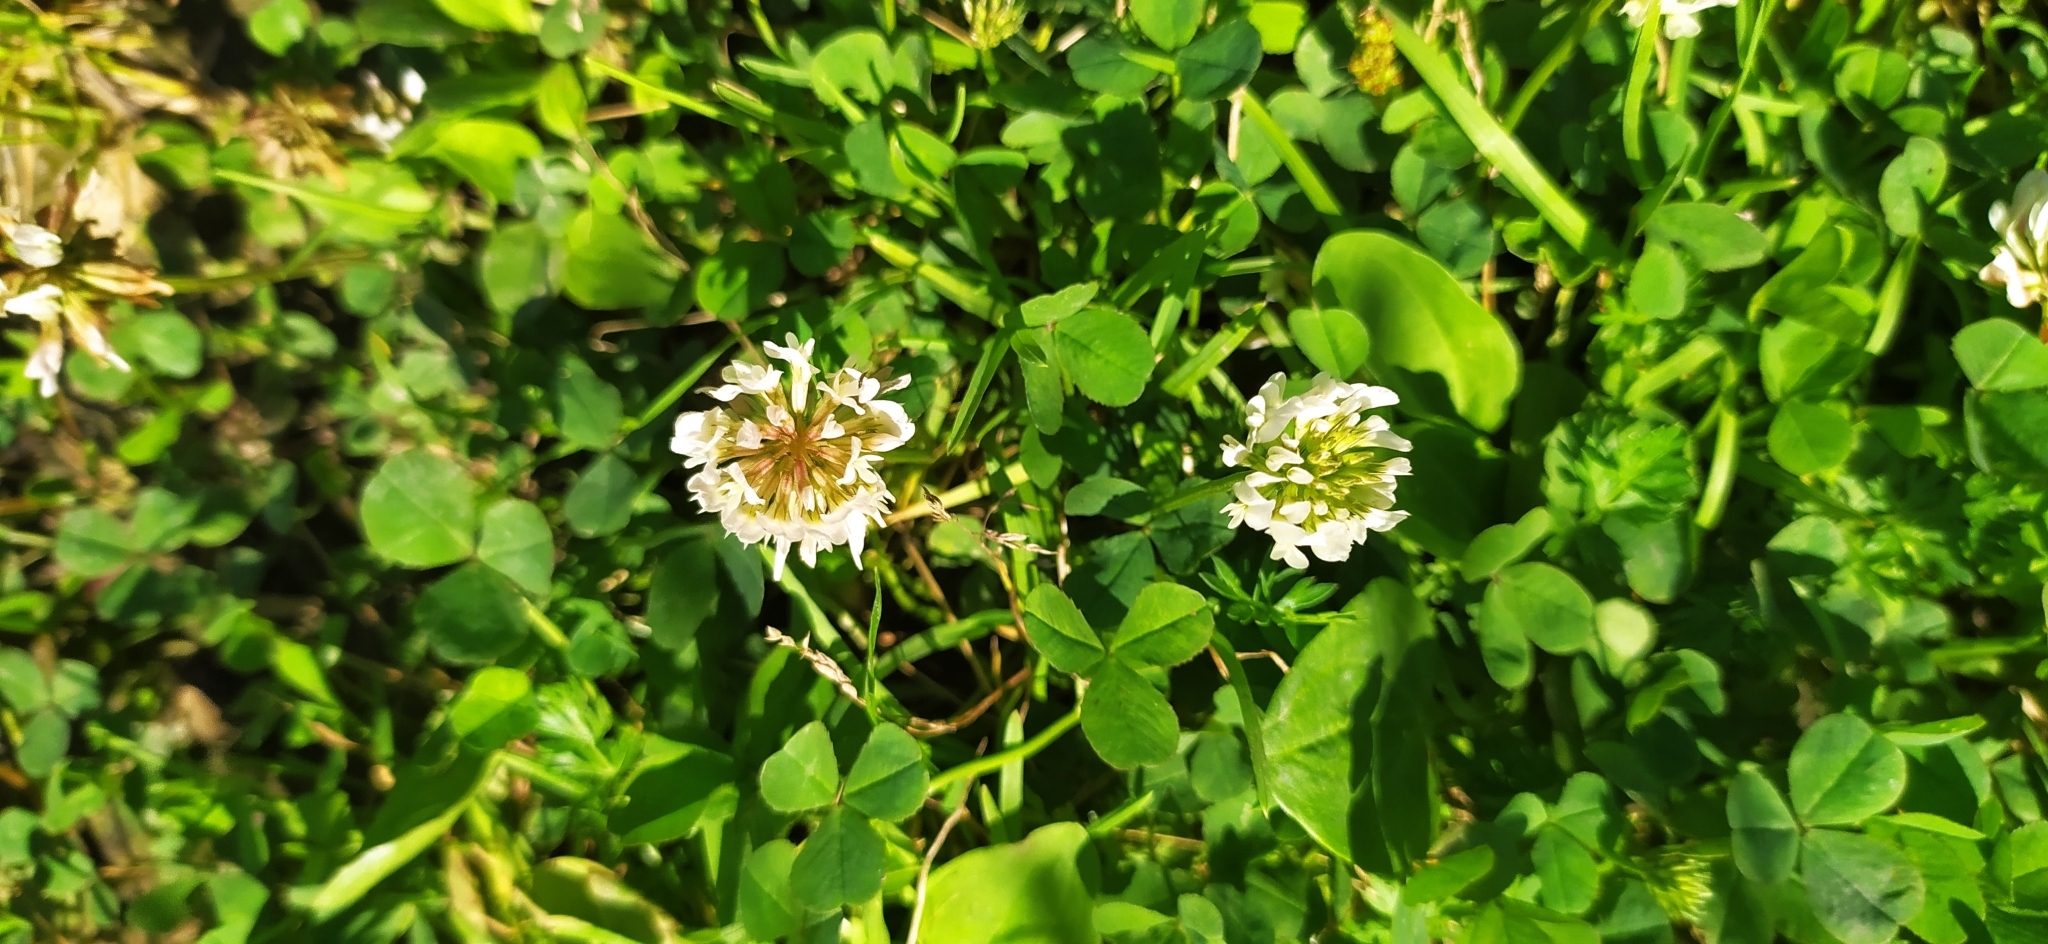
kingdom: Plantae
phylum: Tracheophyta
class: Magnoliopsida
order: Fabales
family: Fabaceae
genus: Trifolium
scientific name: Trifolium repens
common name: White clover
